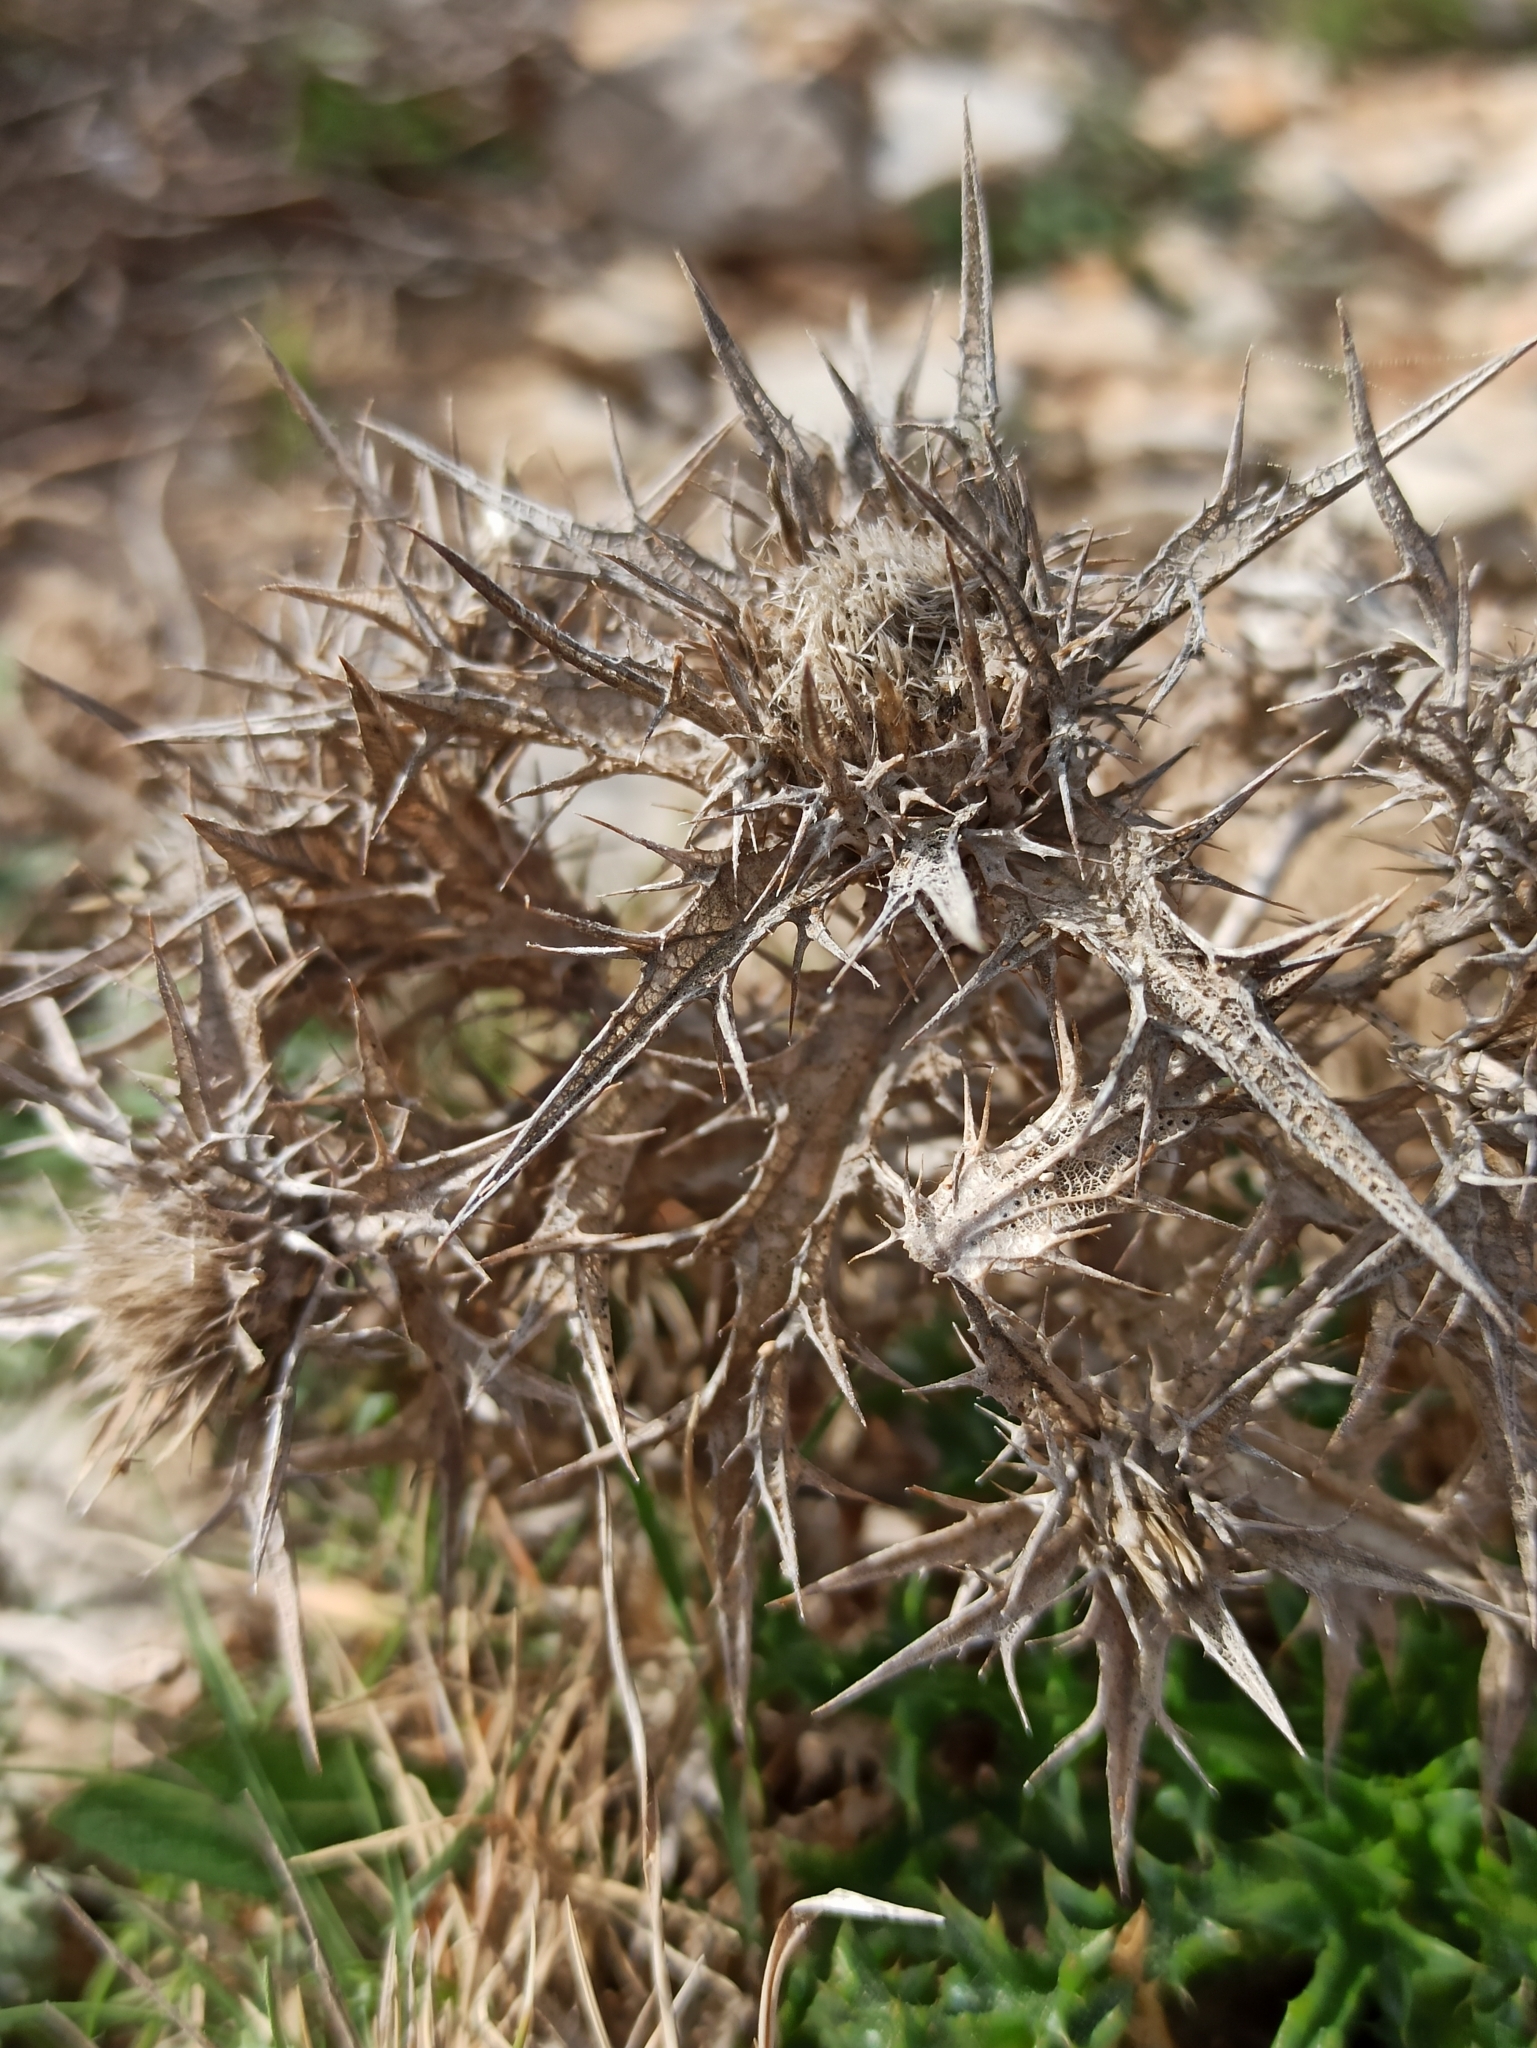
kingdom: Plantae
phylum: Tracheophyta
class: Magnoliopsida
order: Asterales
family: Asteraceae
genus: Carlina
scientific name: Carlina corymbosa
